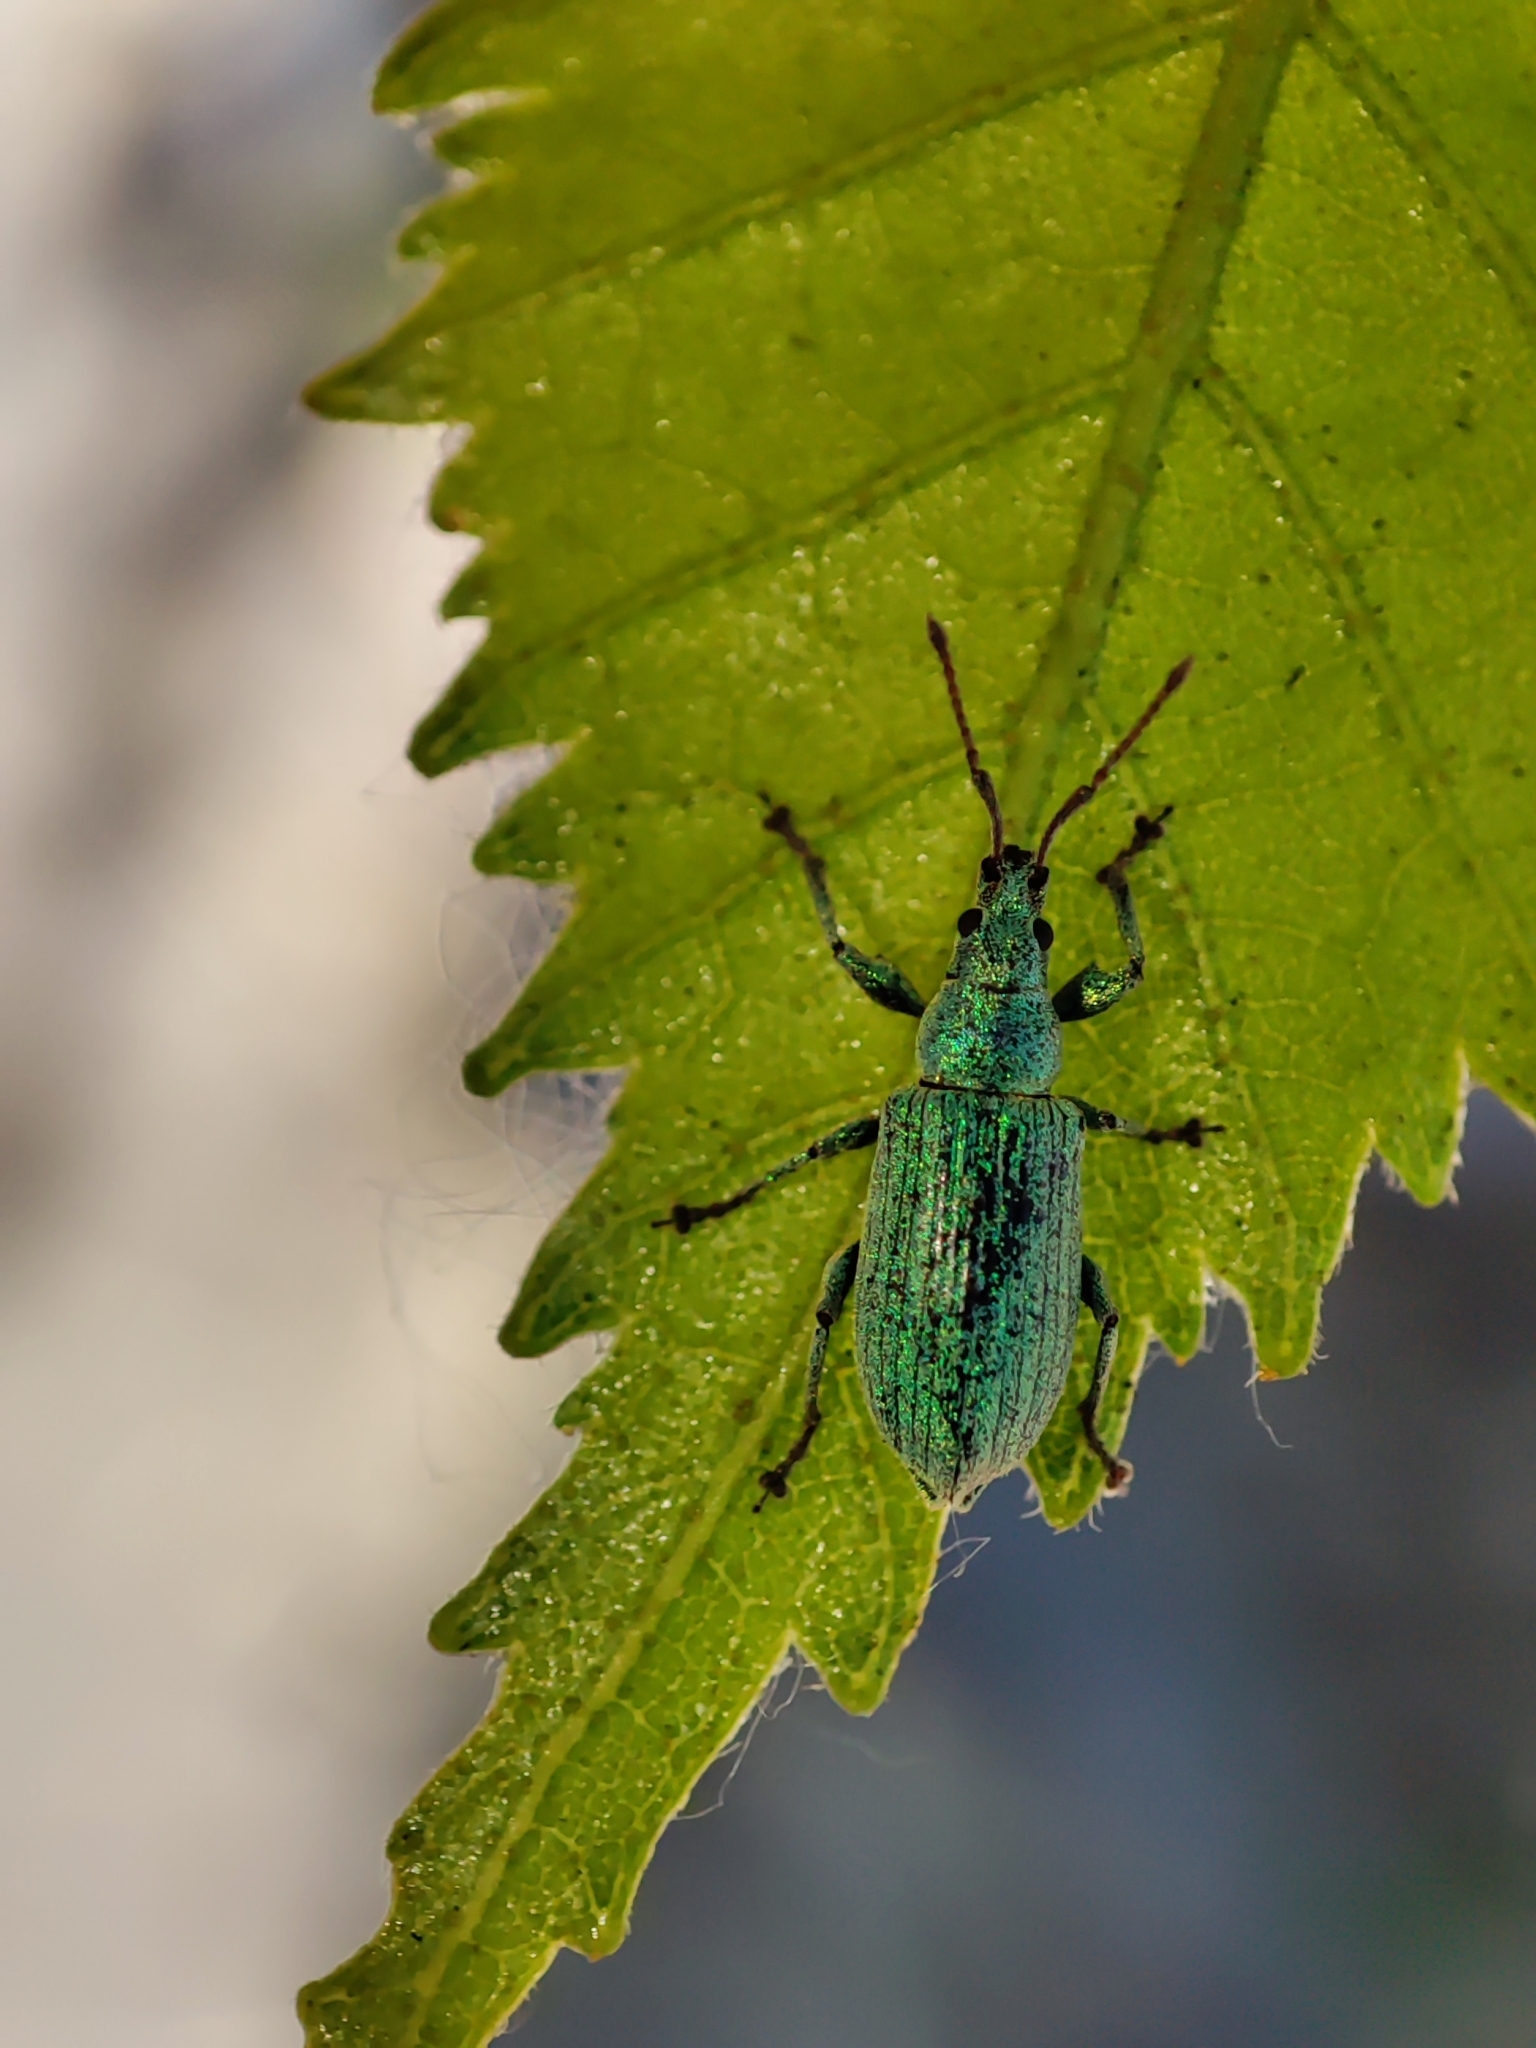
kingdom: Animalia
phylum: Arthropoda
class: Insecta
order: Coleoptera
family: Curculionidae
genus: Phyllobius
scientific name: Phyllobius maculicornis
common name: Green leaf weevil
